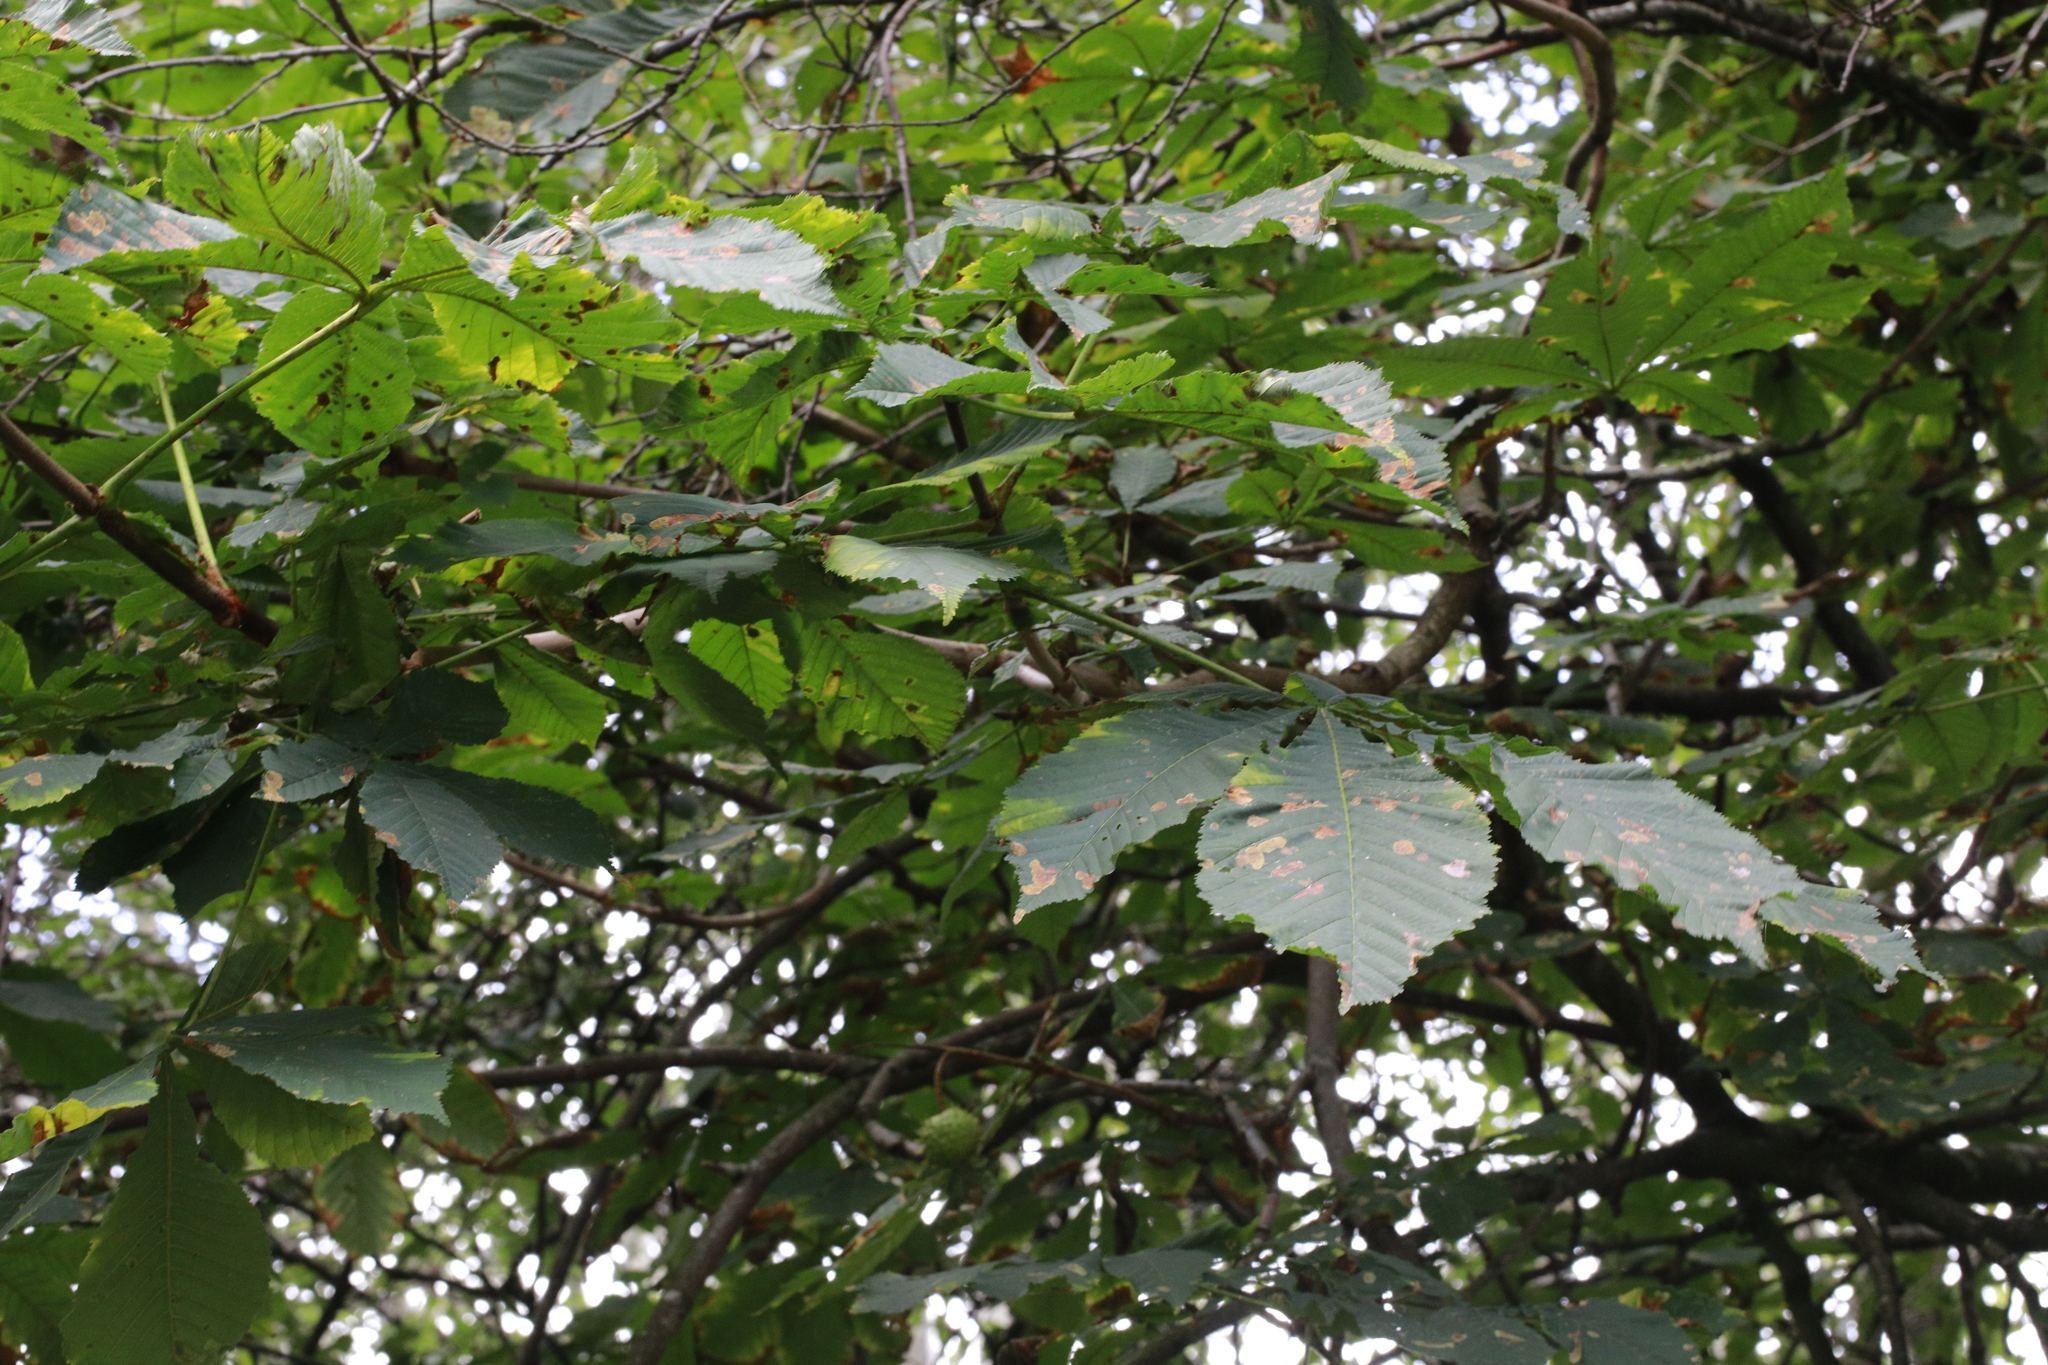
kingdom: Plantae
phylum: Tracheophyta
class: Magnoliopsida
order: Sapindales
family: Sapindaceae
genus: Aesculus
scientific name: Aesculus hippocastanum
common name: Horse-chestnut
